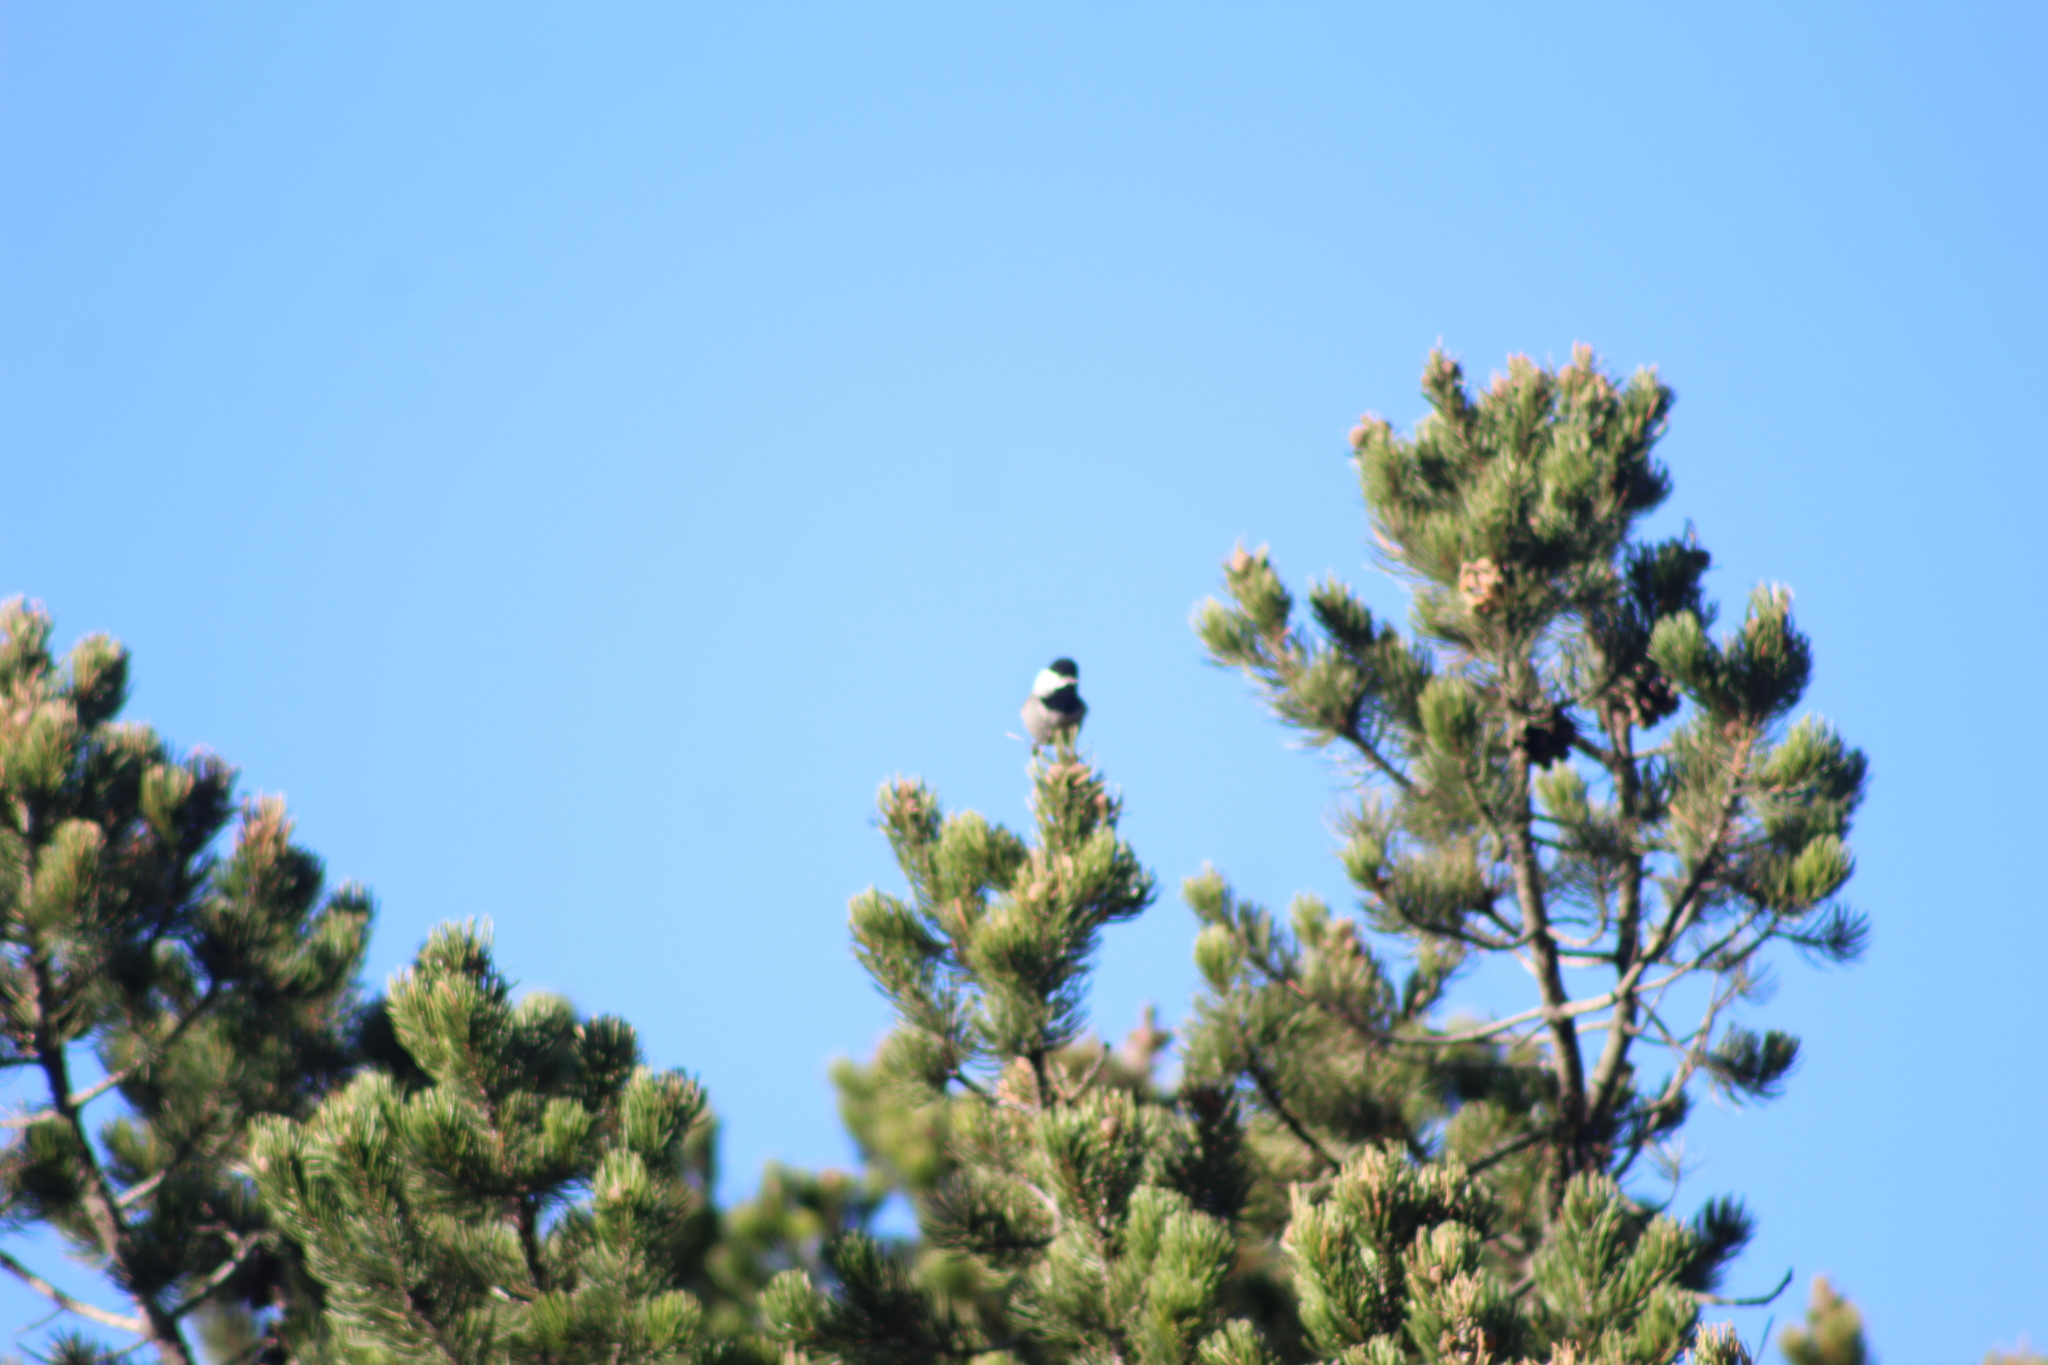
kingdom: Animalia
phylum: Chordata
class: Aves
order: Passeriformes
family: Paridae
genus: Poecile
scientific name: Poecile sclateri
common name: Mexican chickadee
